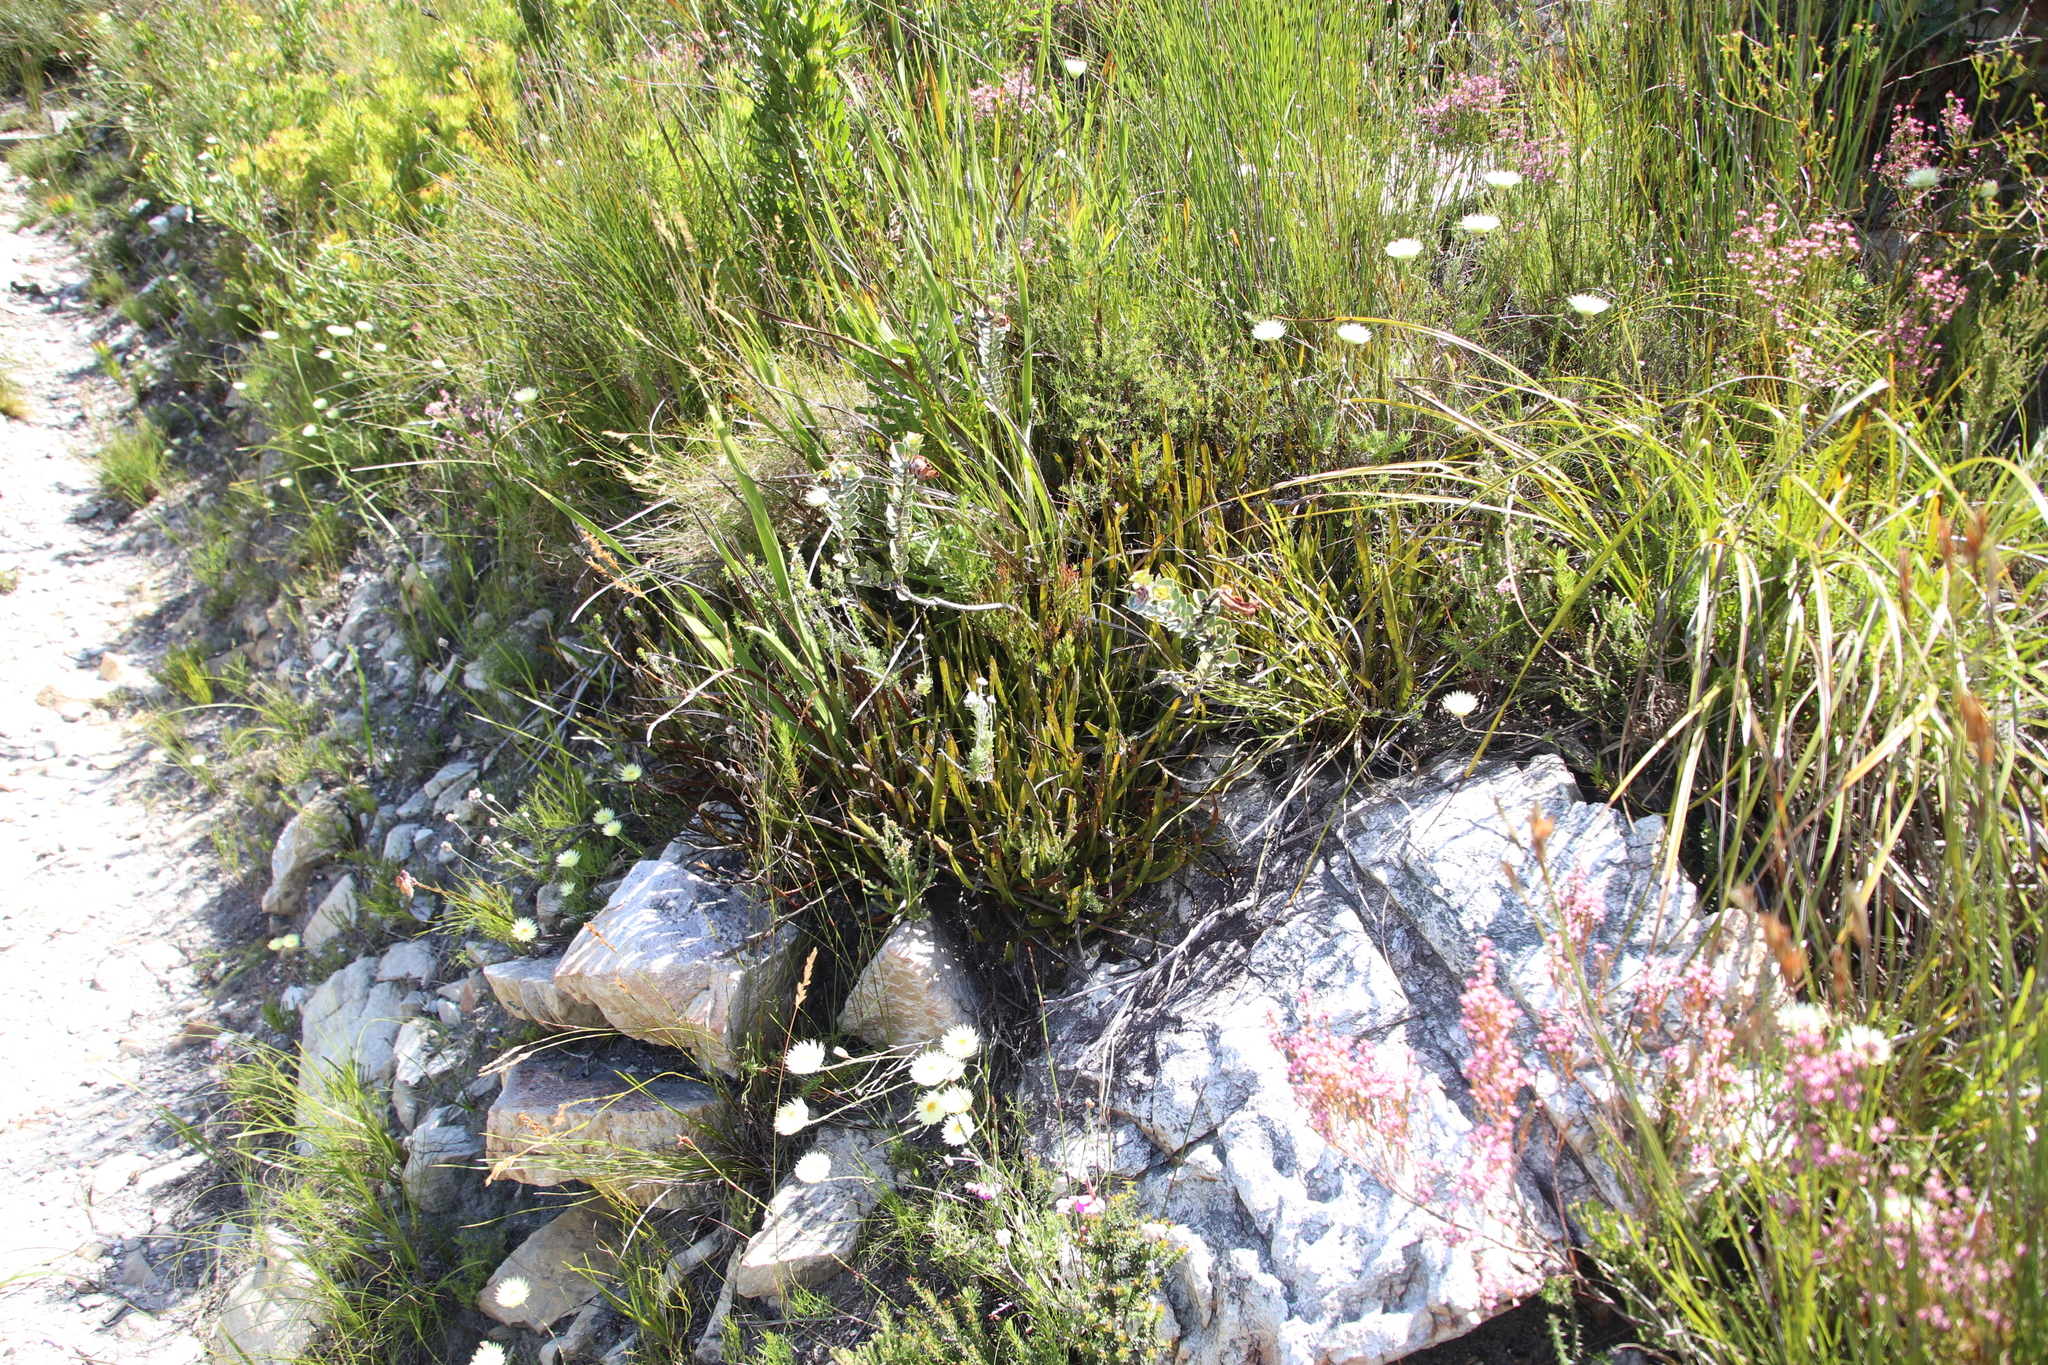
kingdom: Plantae
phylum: Tracheophyta
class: Magnoliopsida
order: Myrtales
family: Penaeaceae
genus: Saltera
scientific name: Saltera sarcocolla
